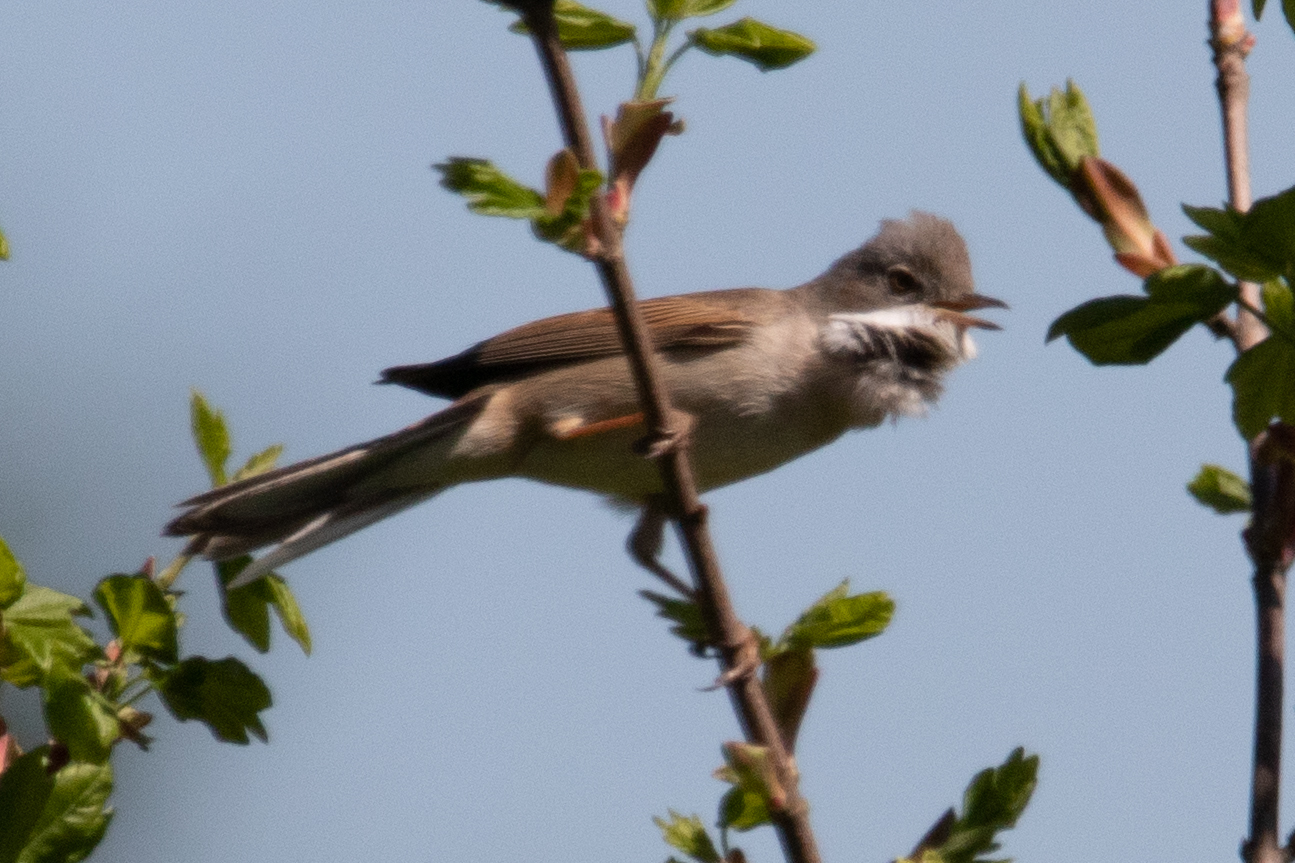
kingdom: Animalia
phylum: Chordata
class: Aves
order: Passeriformes
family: Sylviidae
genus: Sylvia
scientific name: Sylvia communis
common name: Common whitethroat
